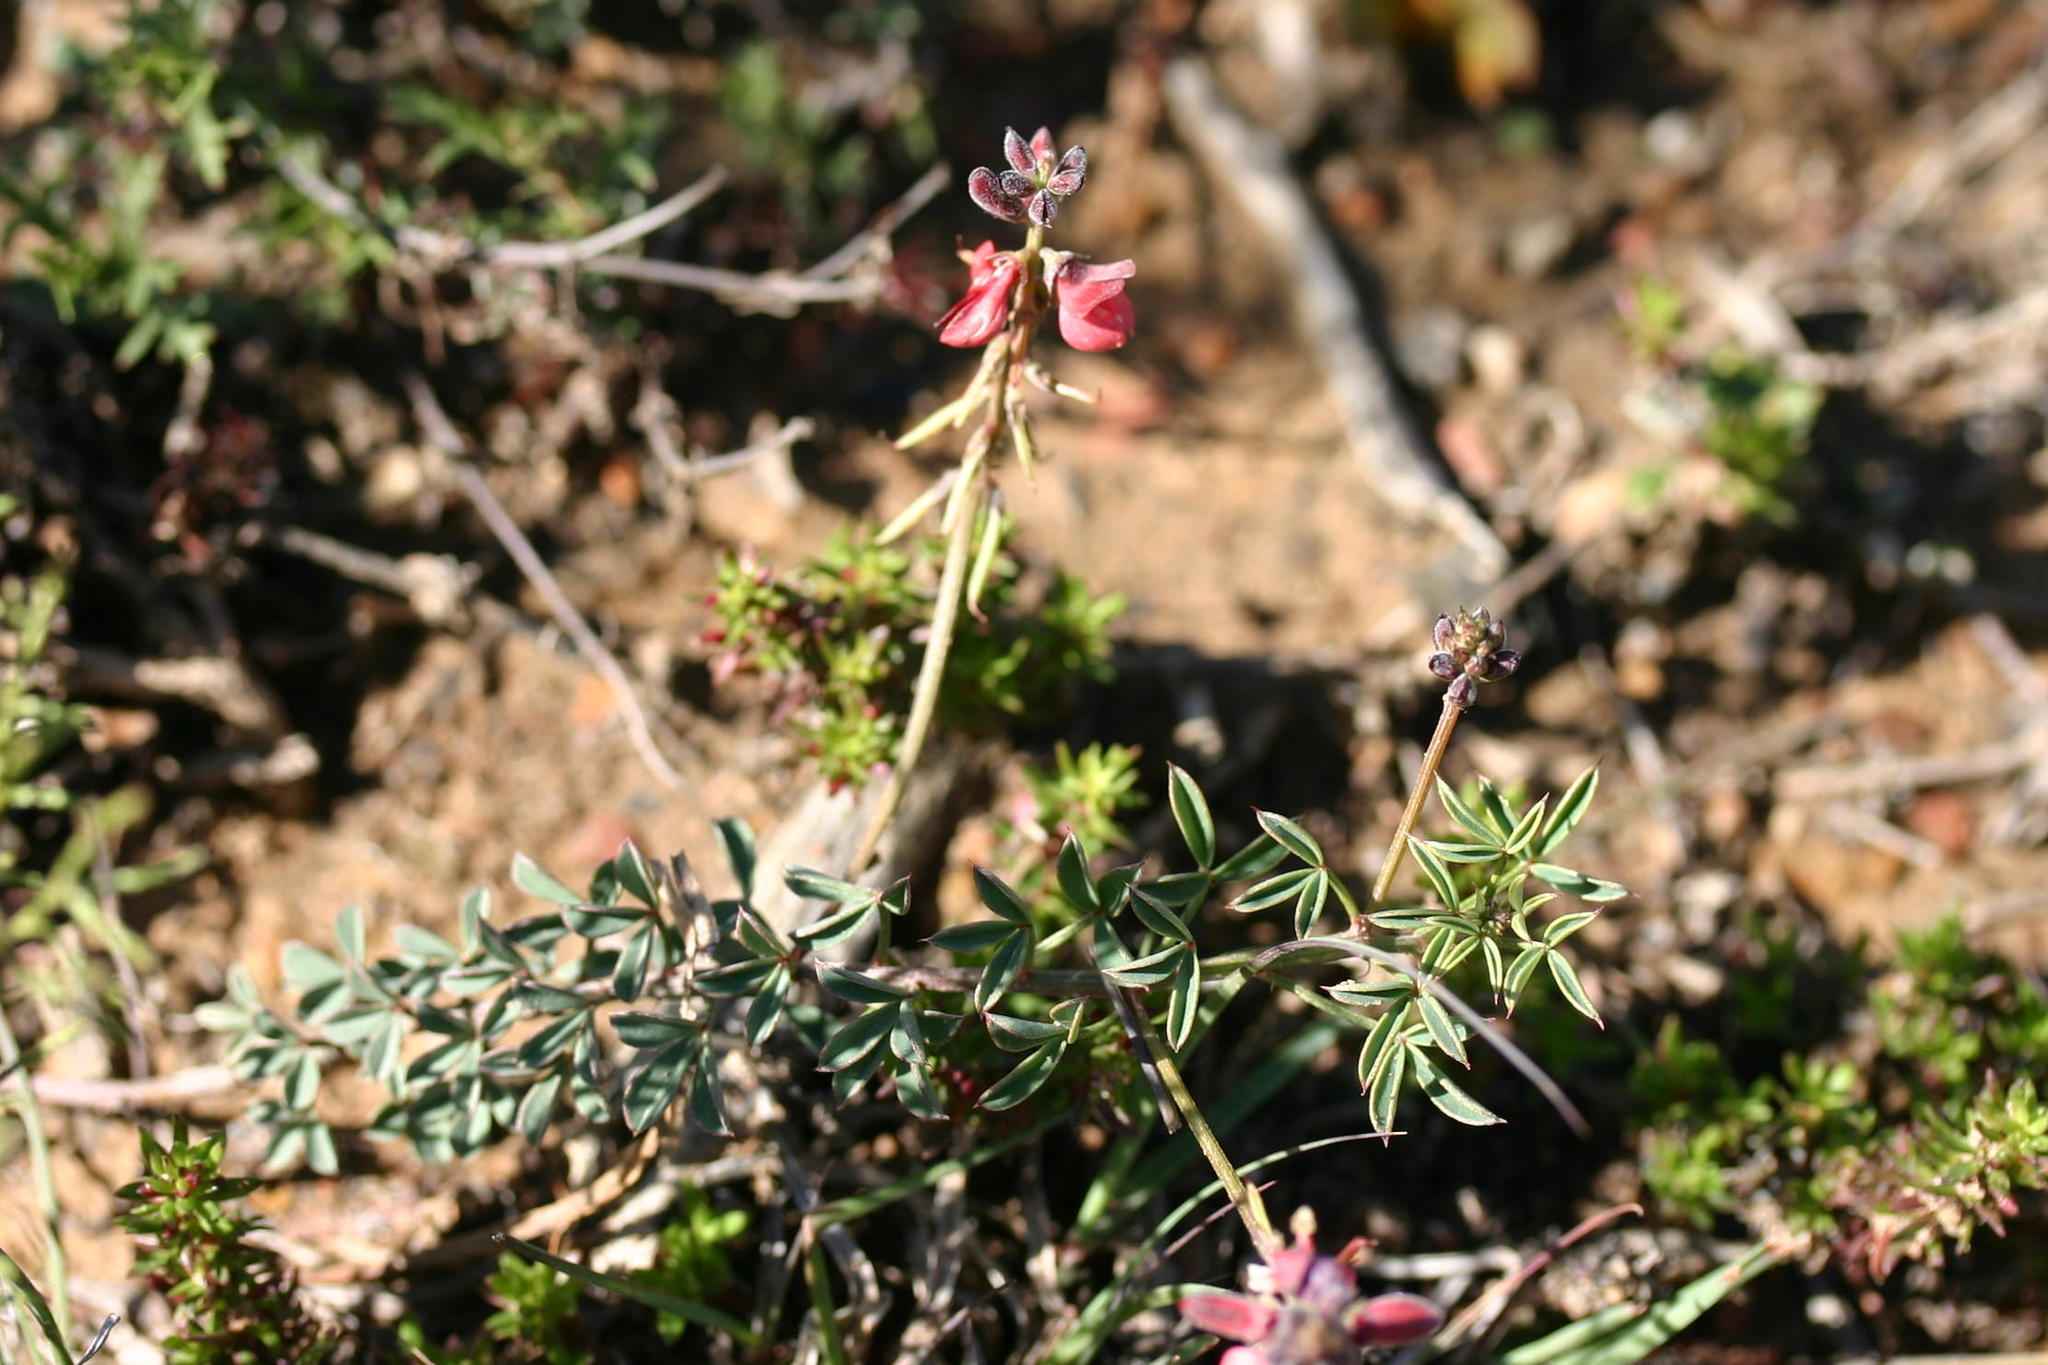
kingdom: Plantae
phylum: Tracheophyta
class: Magnoliopsida
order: Fabales
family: Fabaceae
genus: Indigofera
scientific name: Indigofera heterophylla
